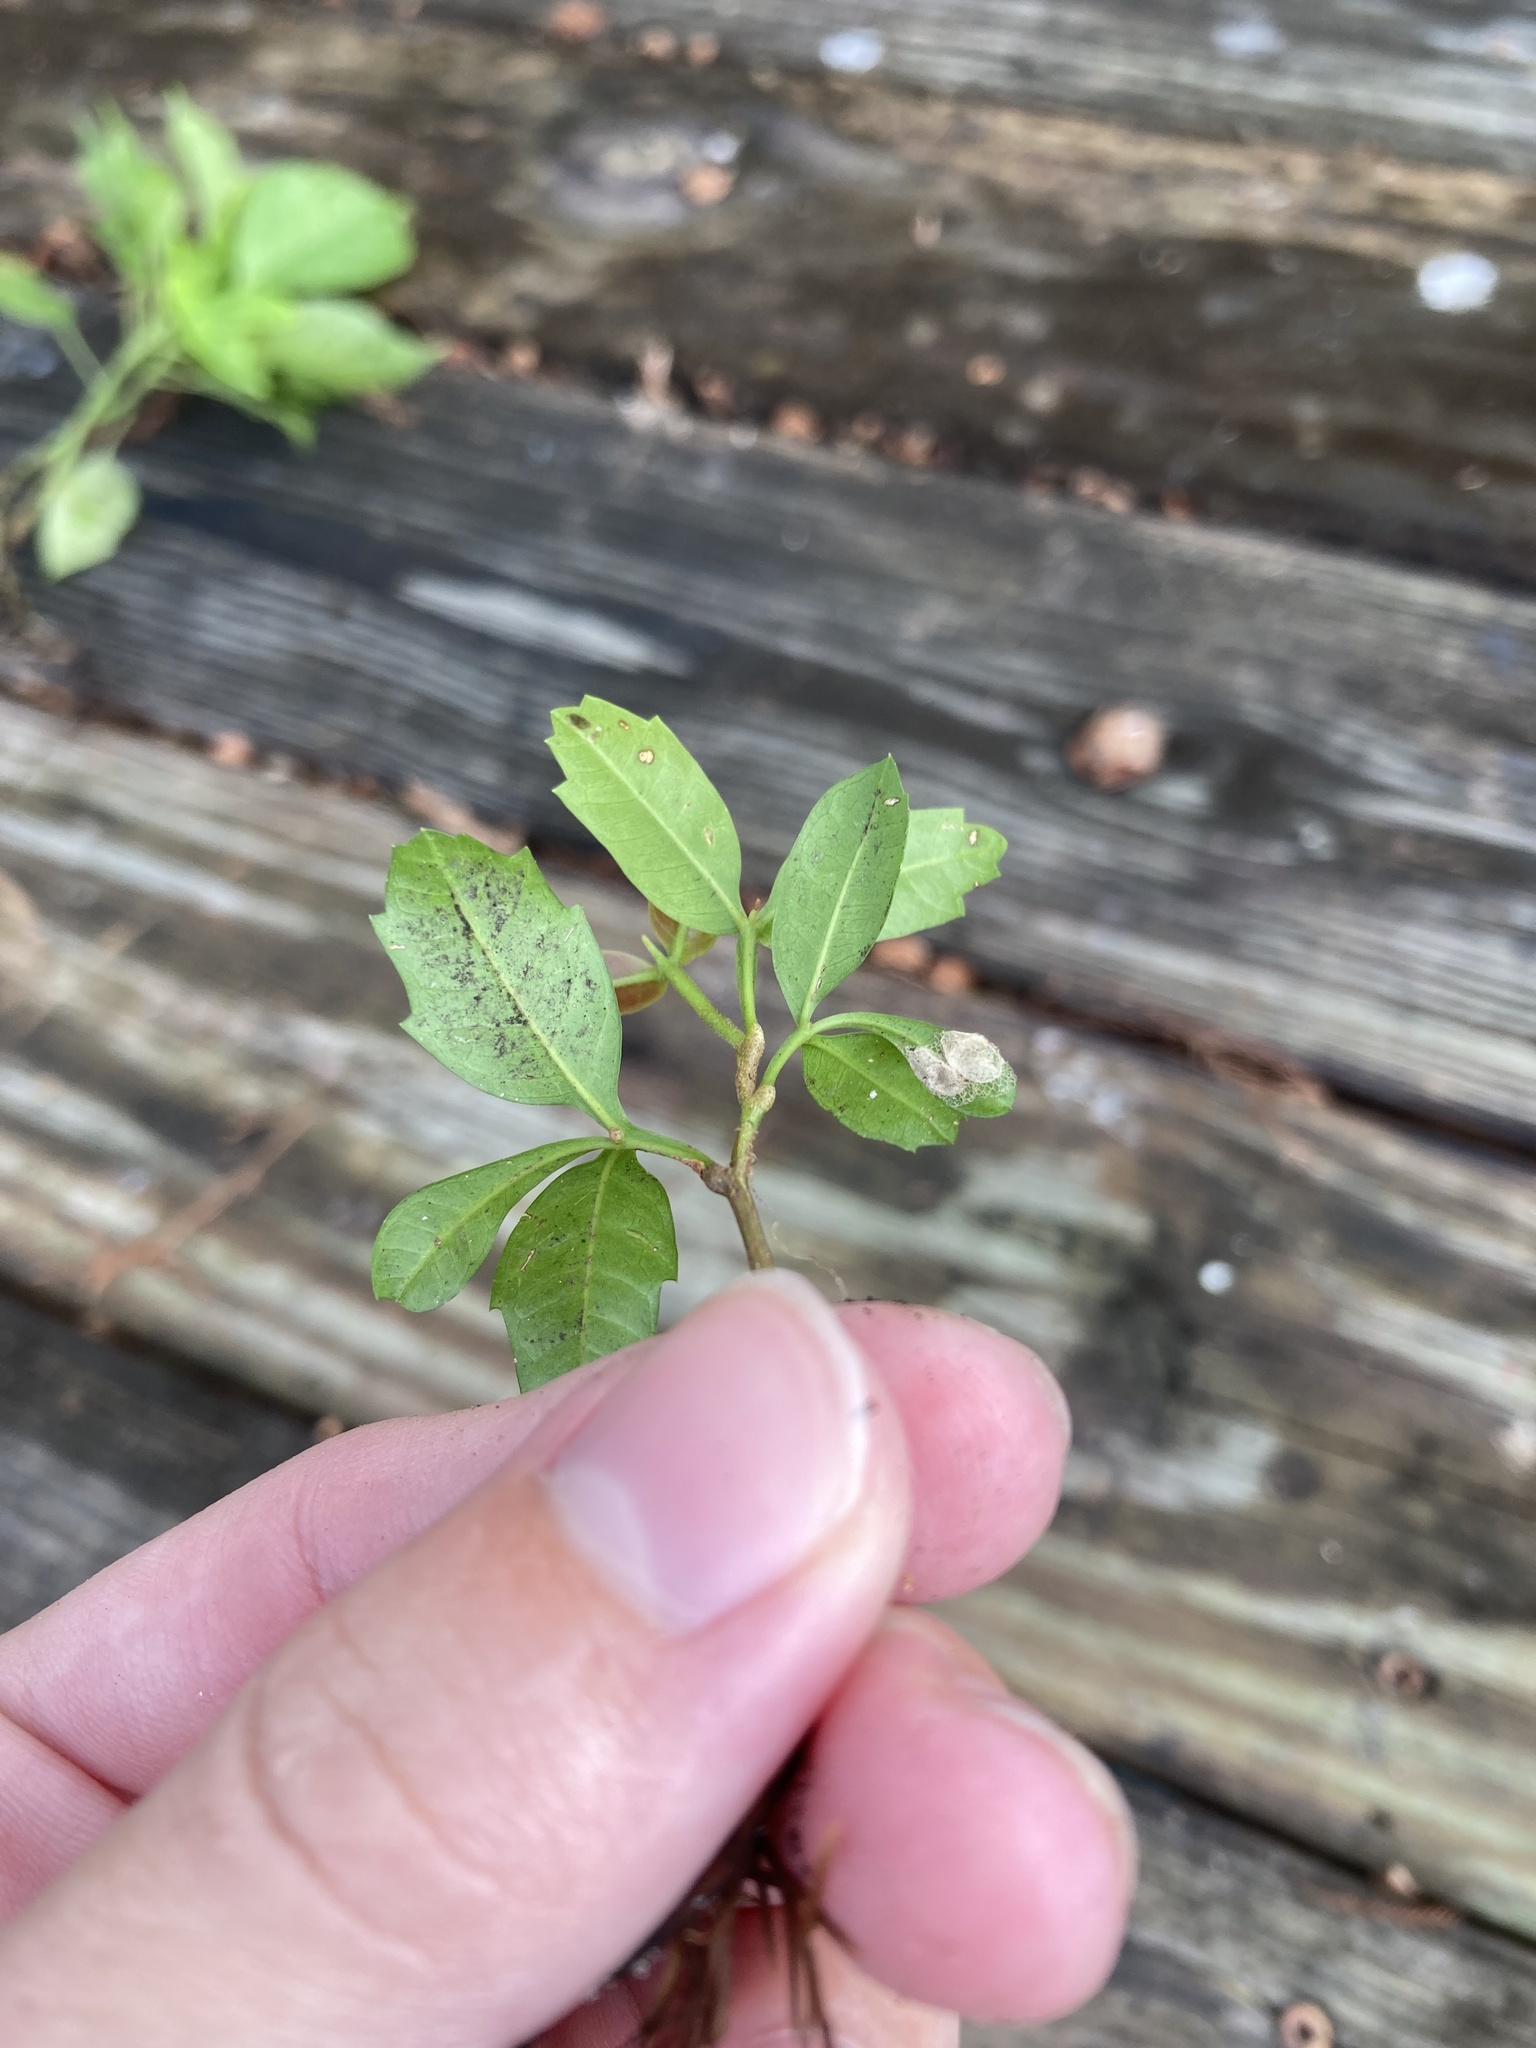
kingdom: Plantae
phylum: Tracheophyta
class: Magnoliopsida
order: Sapindales
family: Anacardiaceae
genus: Schinus
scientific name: Schinus terebinthifolia
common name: Brazilian peppertree
